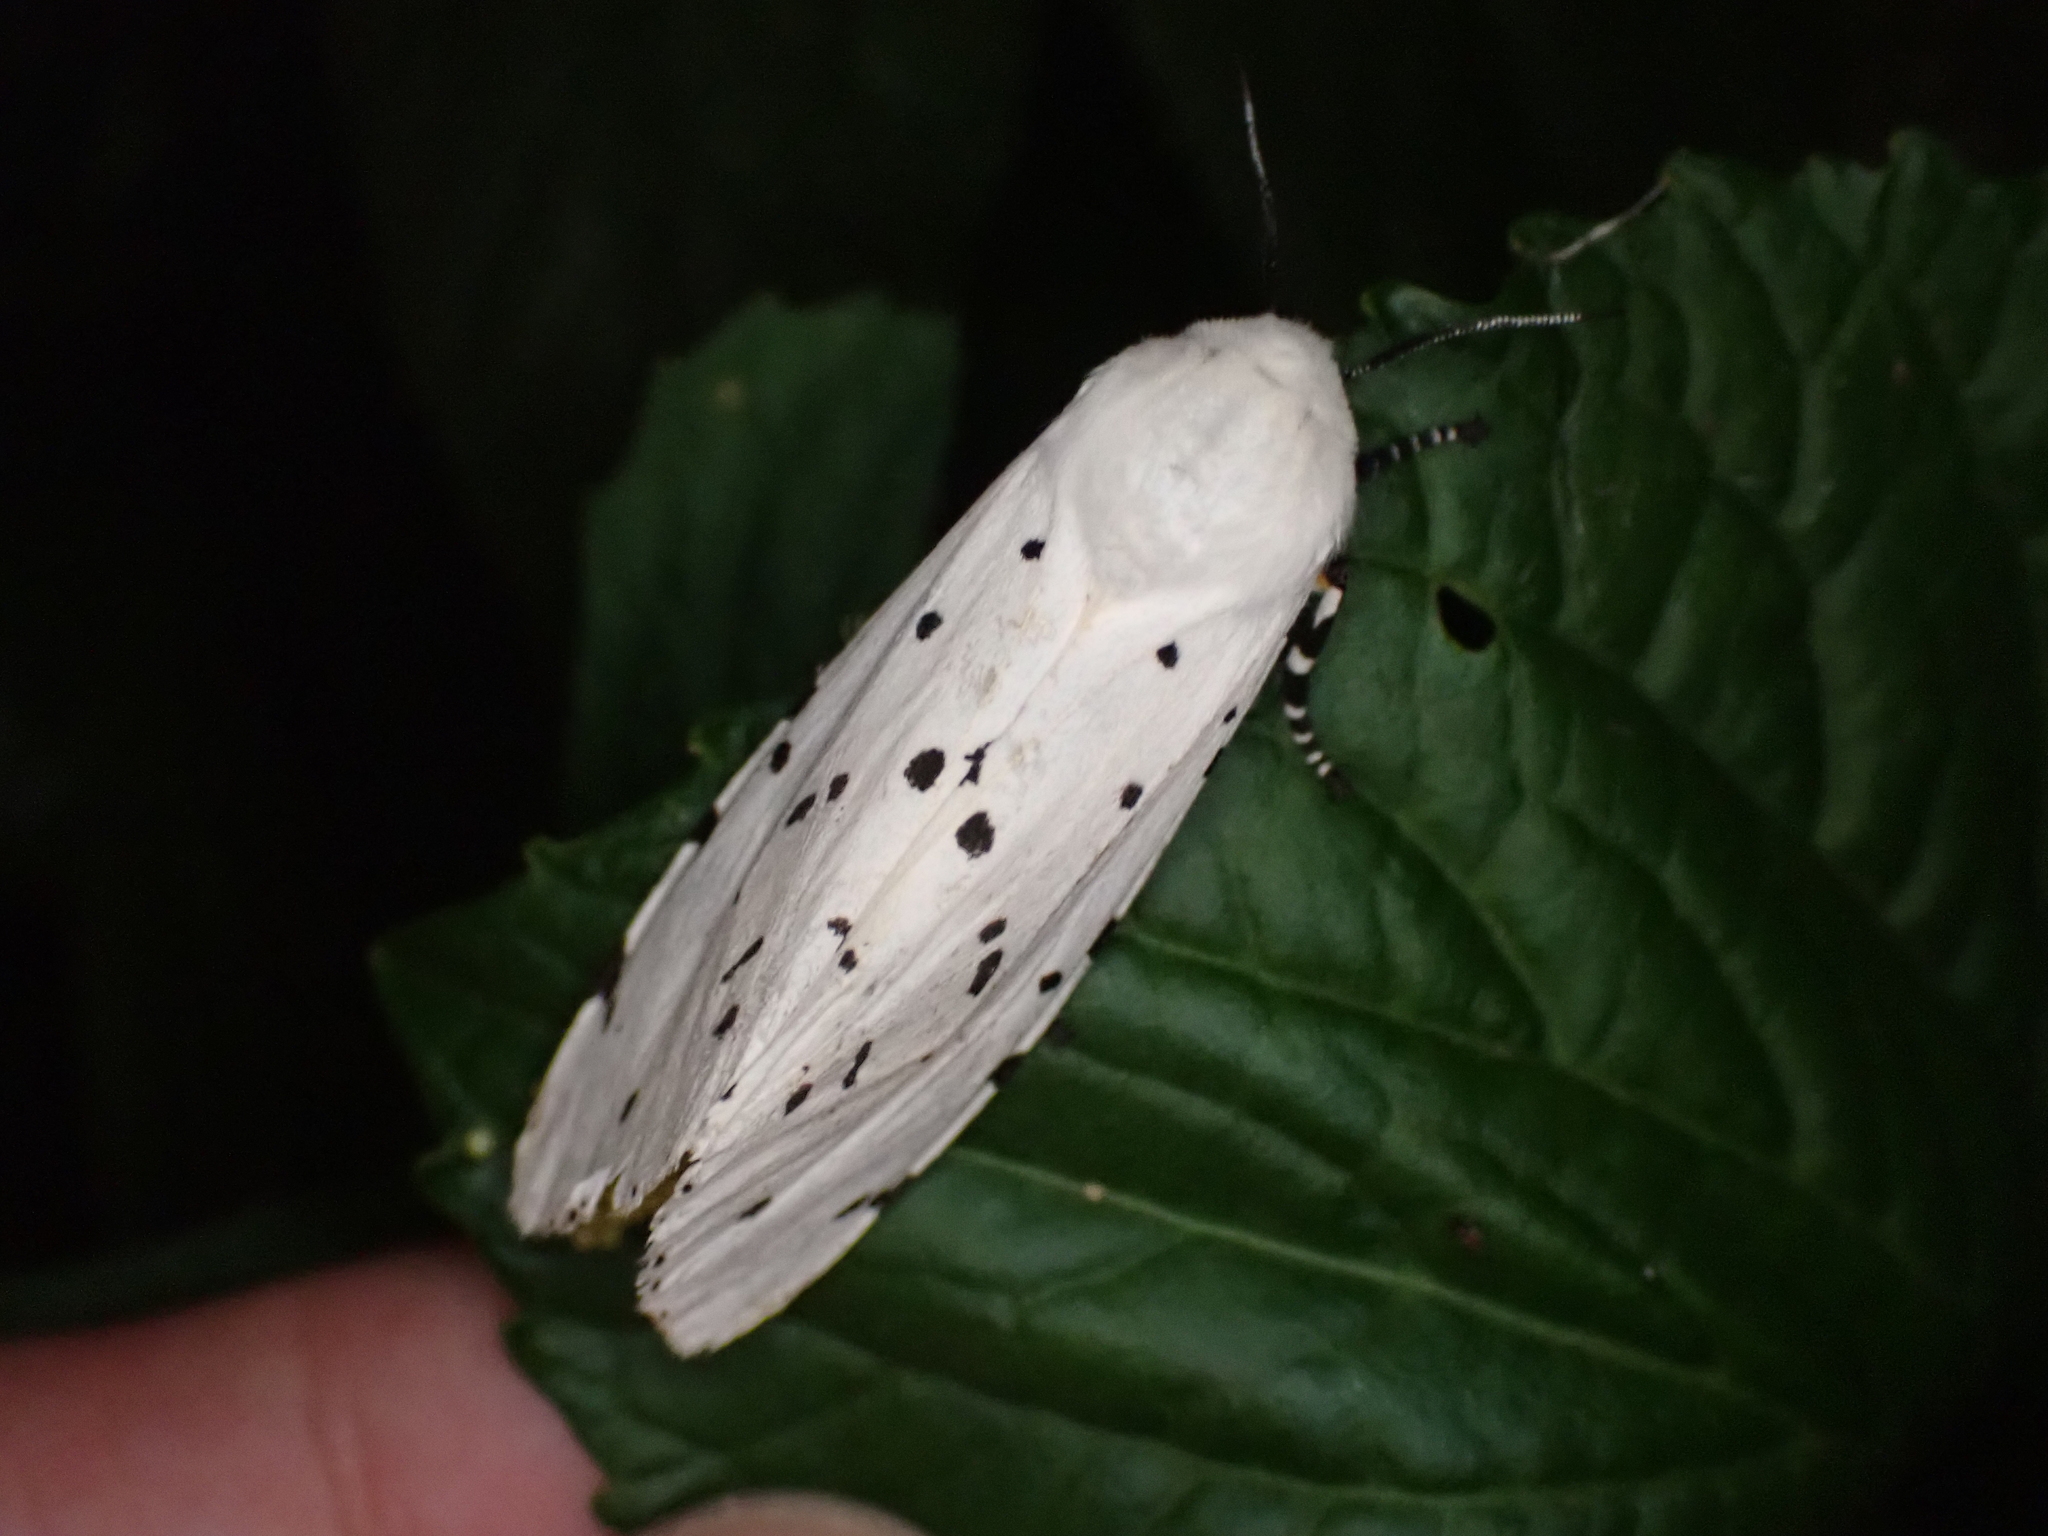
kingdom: Animalia
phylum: Arthropoda
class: Insecta
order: Lepidoptera
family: Erebidae
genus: Estigmene
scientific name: Estigmene acrea
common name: Salt marsh moth
